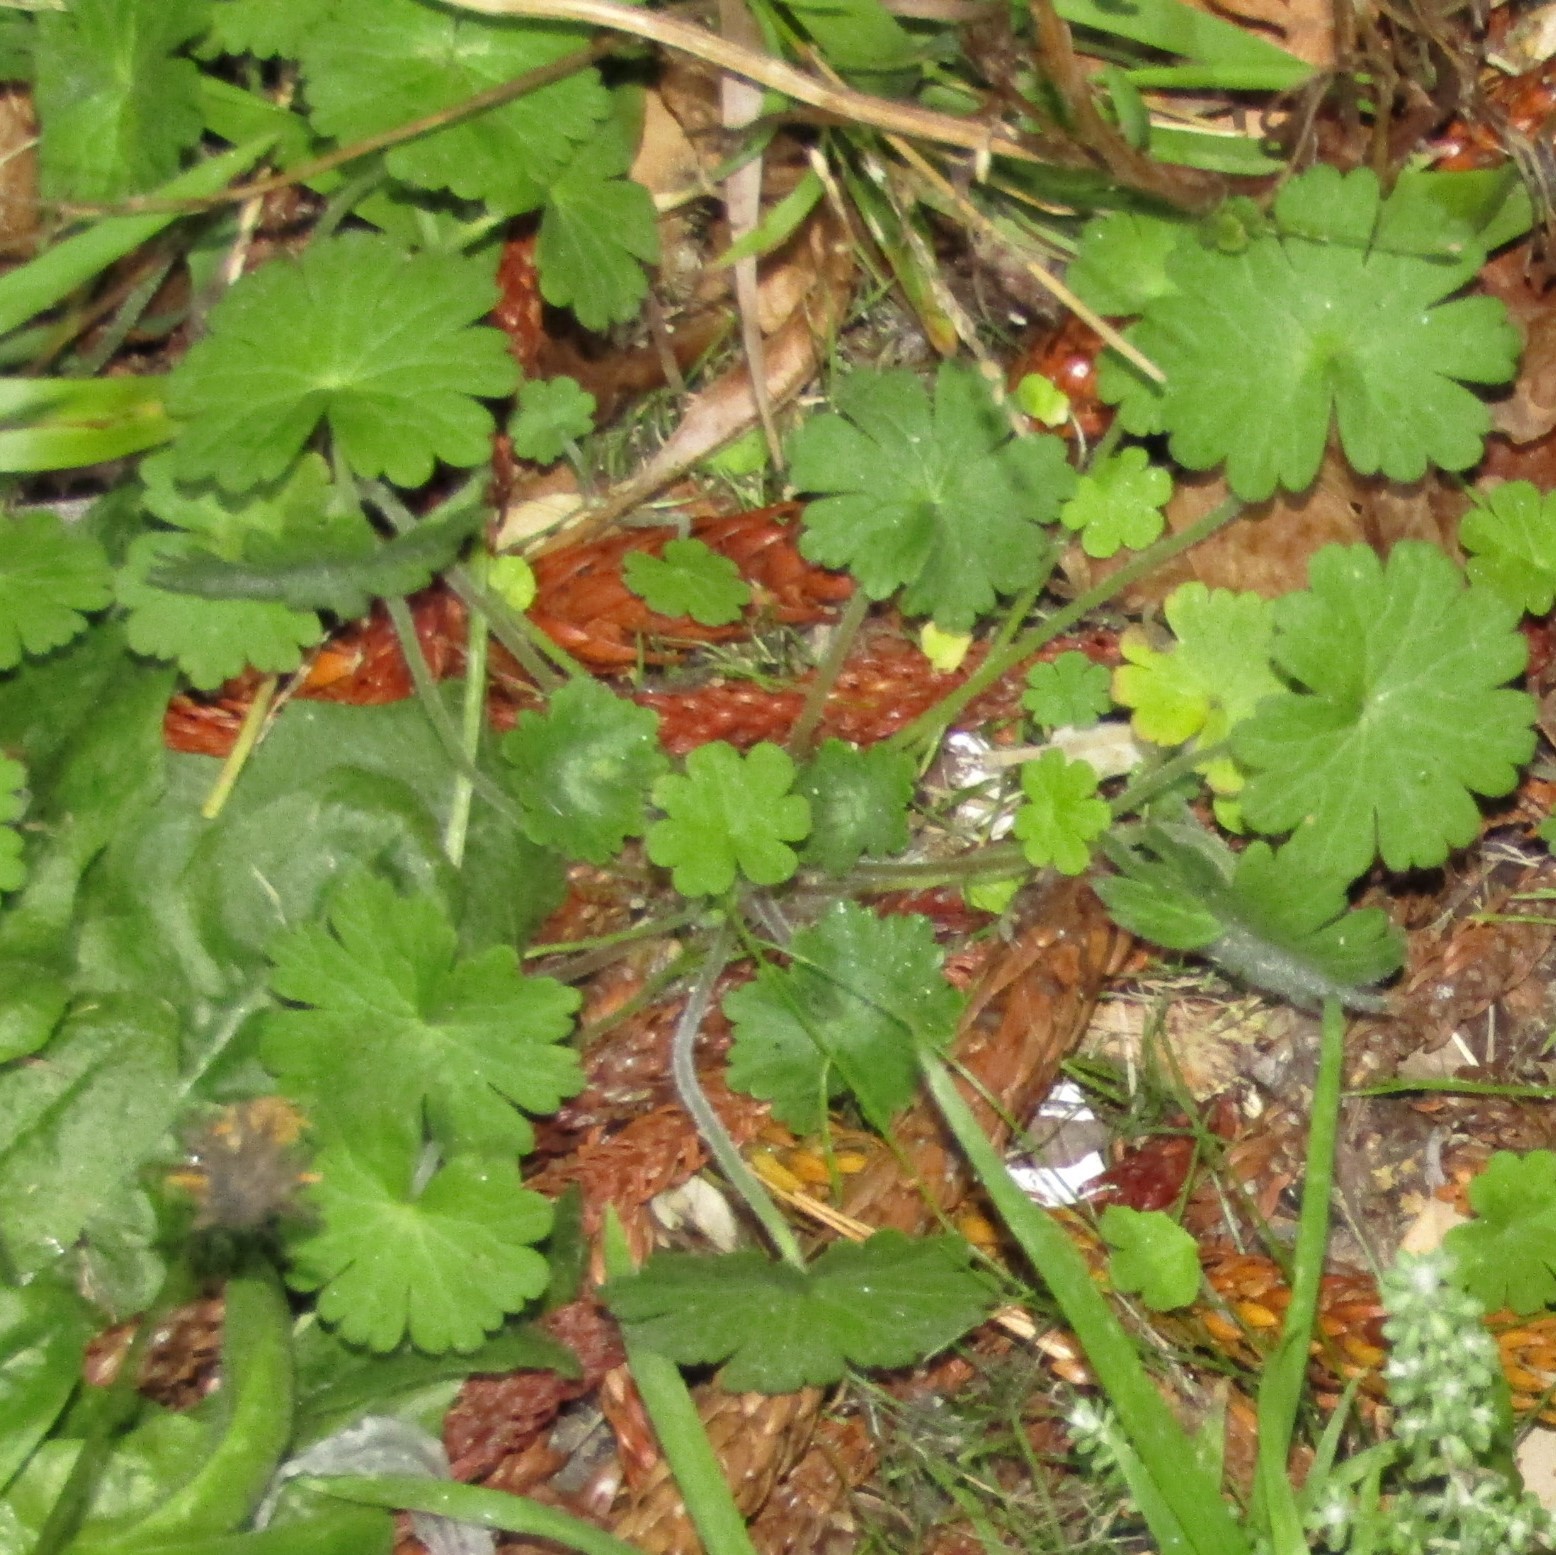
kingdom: Plantae
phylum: Tracheophyta
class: Magnoliopsida
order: Geraniales
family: Geraniaceae
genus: Geranium
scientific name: Geranium molle
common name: Dove's-foot crane's-bill
